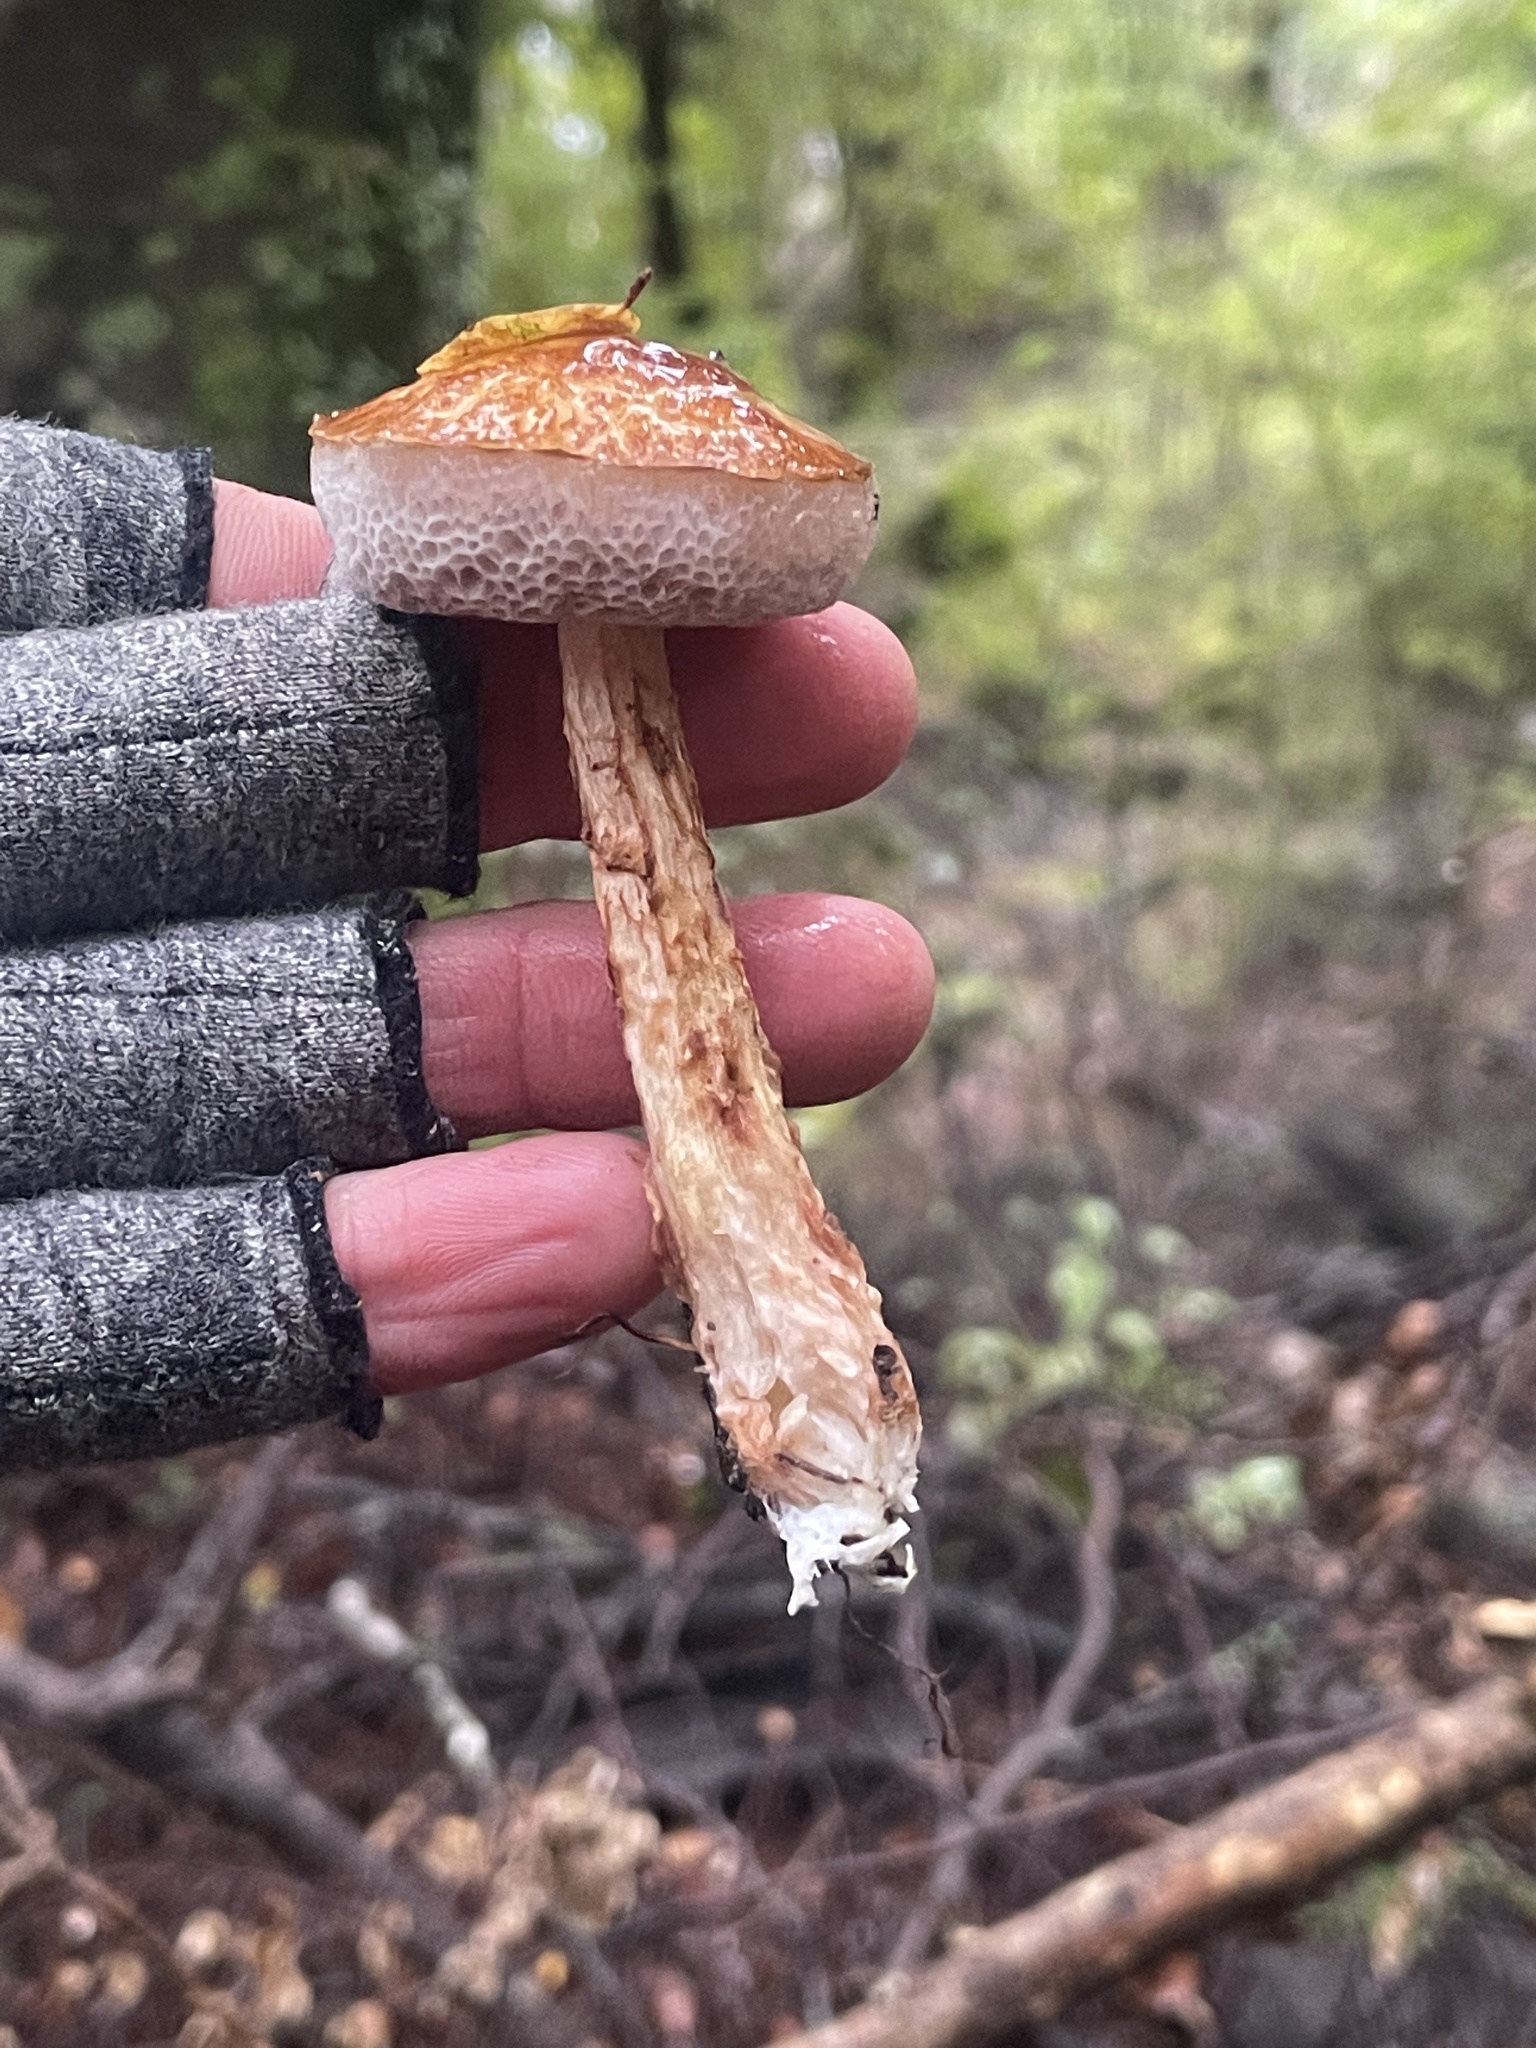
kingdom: Fungi
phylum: Basidiomycota
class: Agaricomycetes
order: Boletales
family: Boletaceae
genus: Austroboletus
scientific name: Austroboletus lacunosus
